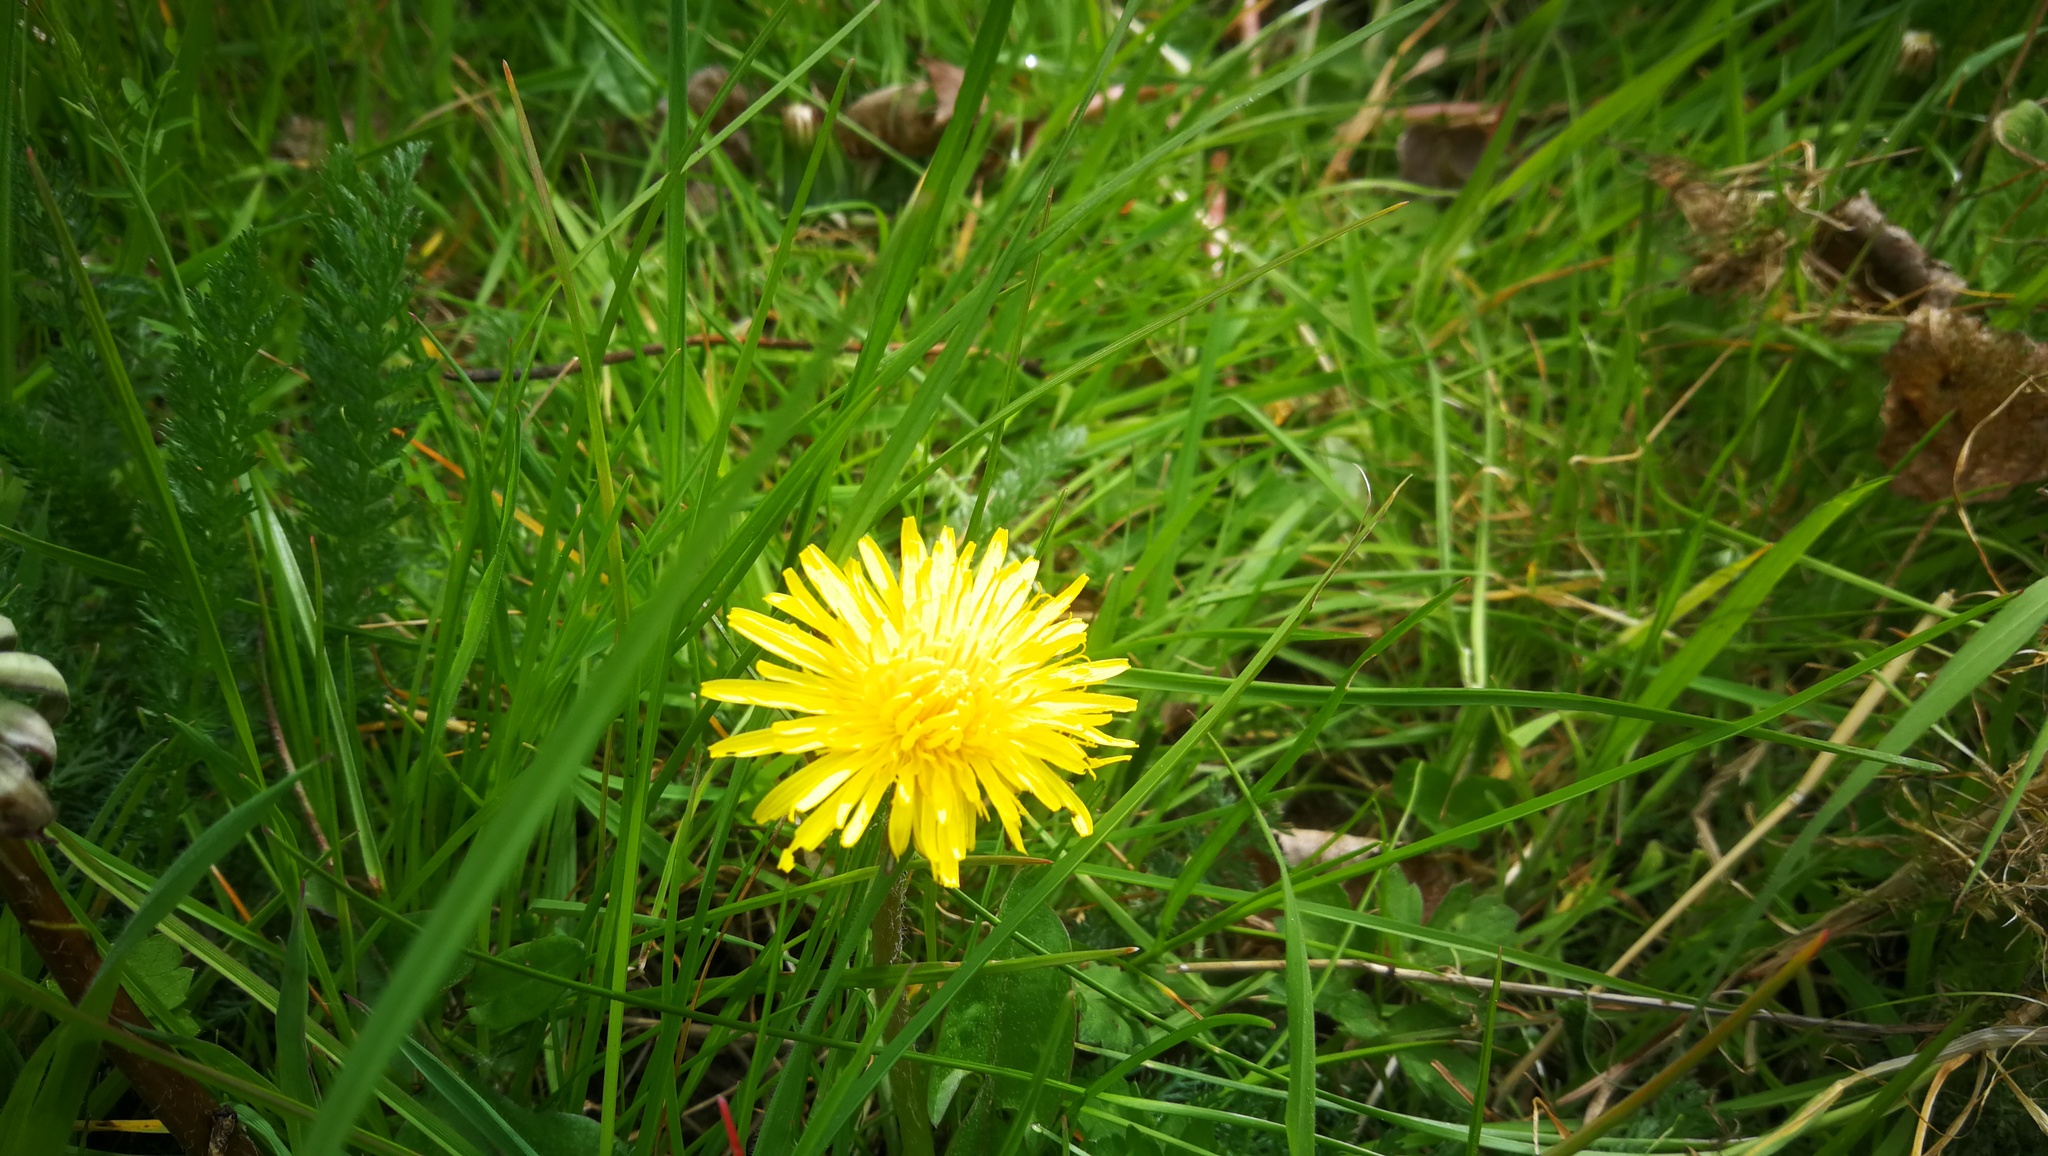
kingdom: Plantae
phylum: Tracheophyta
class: Magnoliopsida
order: Asterales
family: Asteraceae
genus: Taraxacum
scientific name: Taraxacum officinale
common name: Common dandelion
